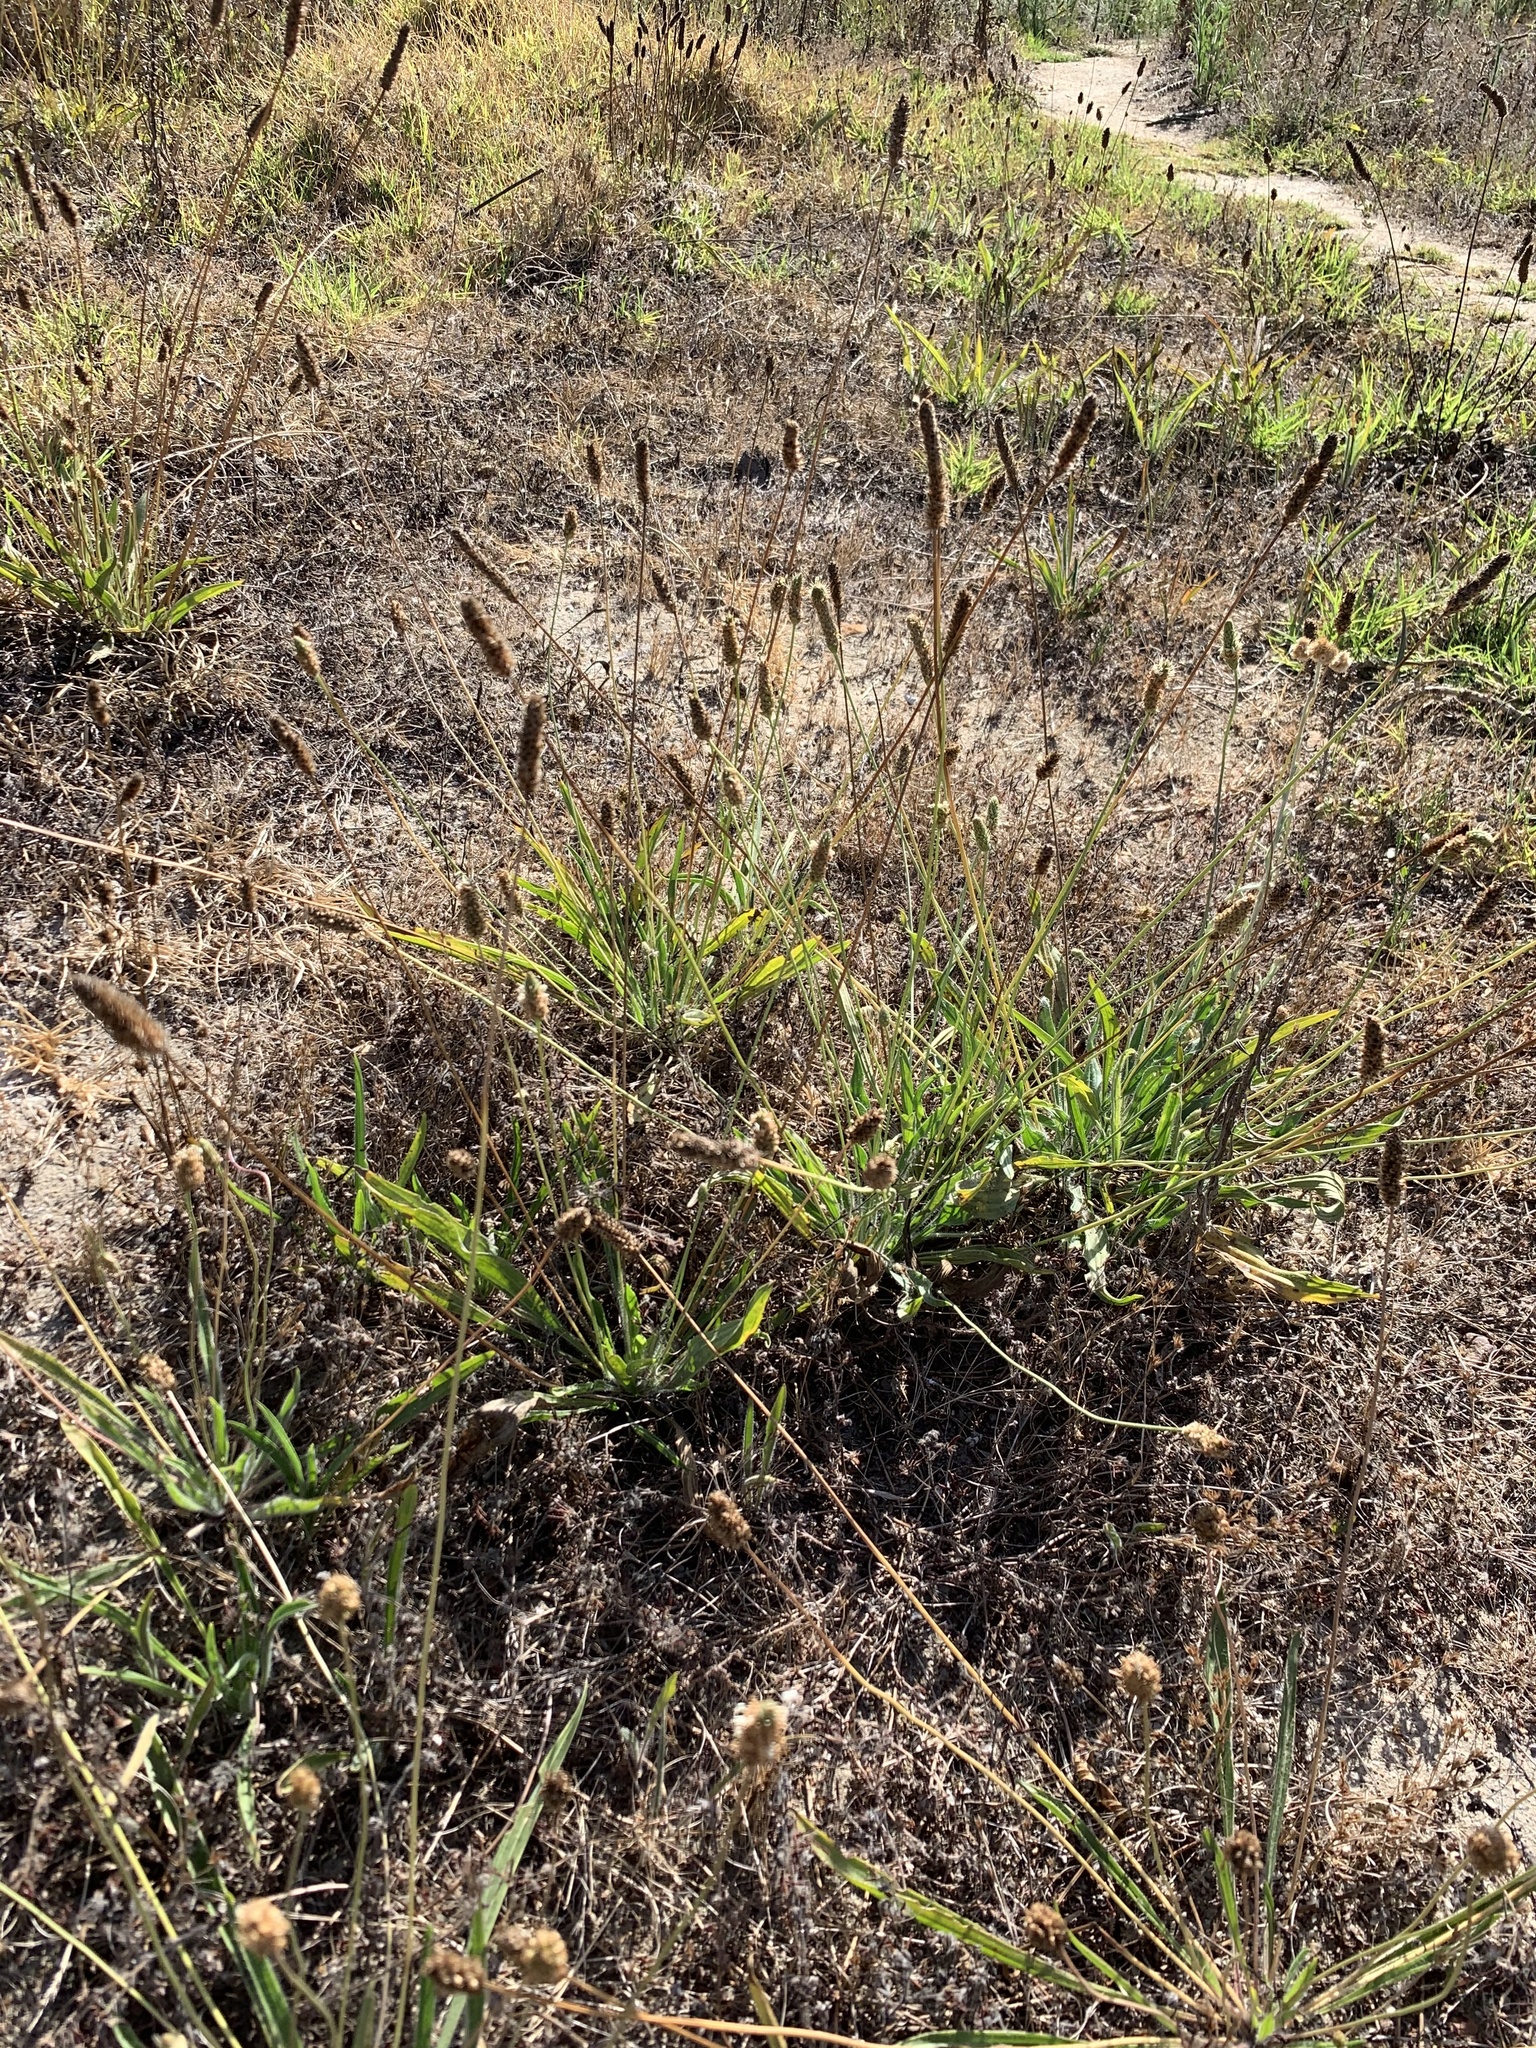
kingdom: Plantae
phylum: Tracheophyta
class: Magnoliopsida
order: Lamiales
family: Plantaginaceae
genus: Plantago
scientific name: Plantago lanceolata
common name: Ribwort plantain
